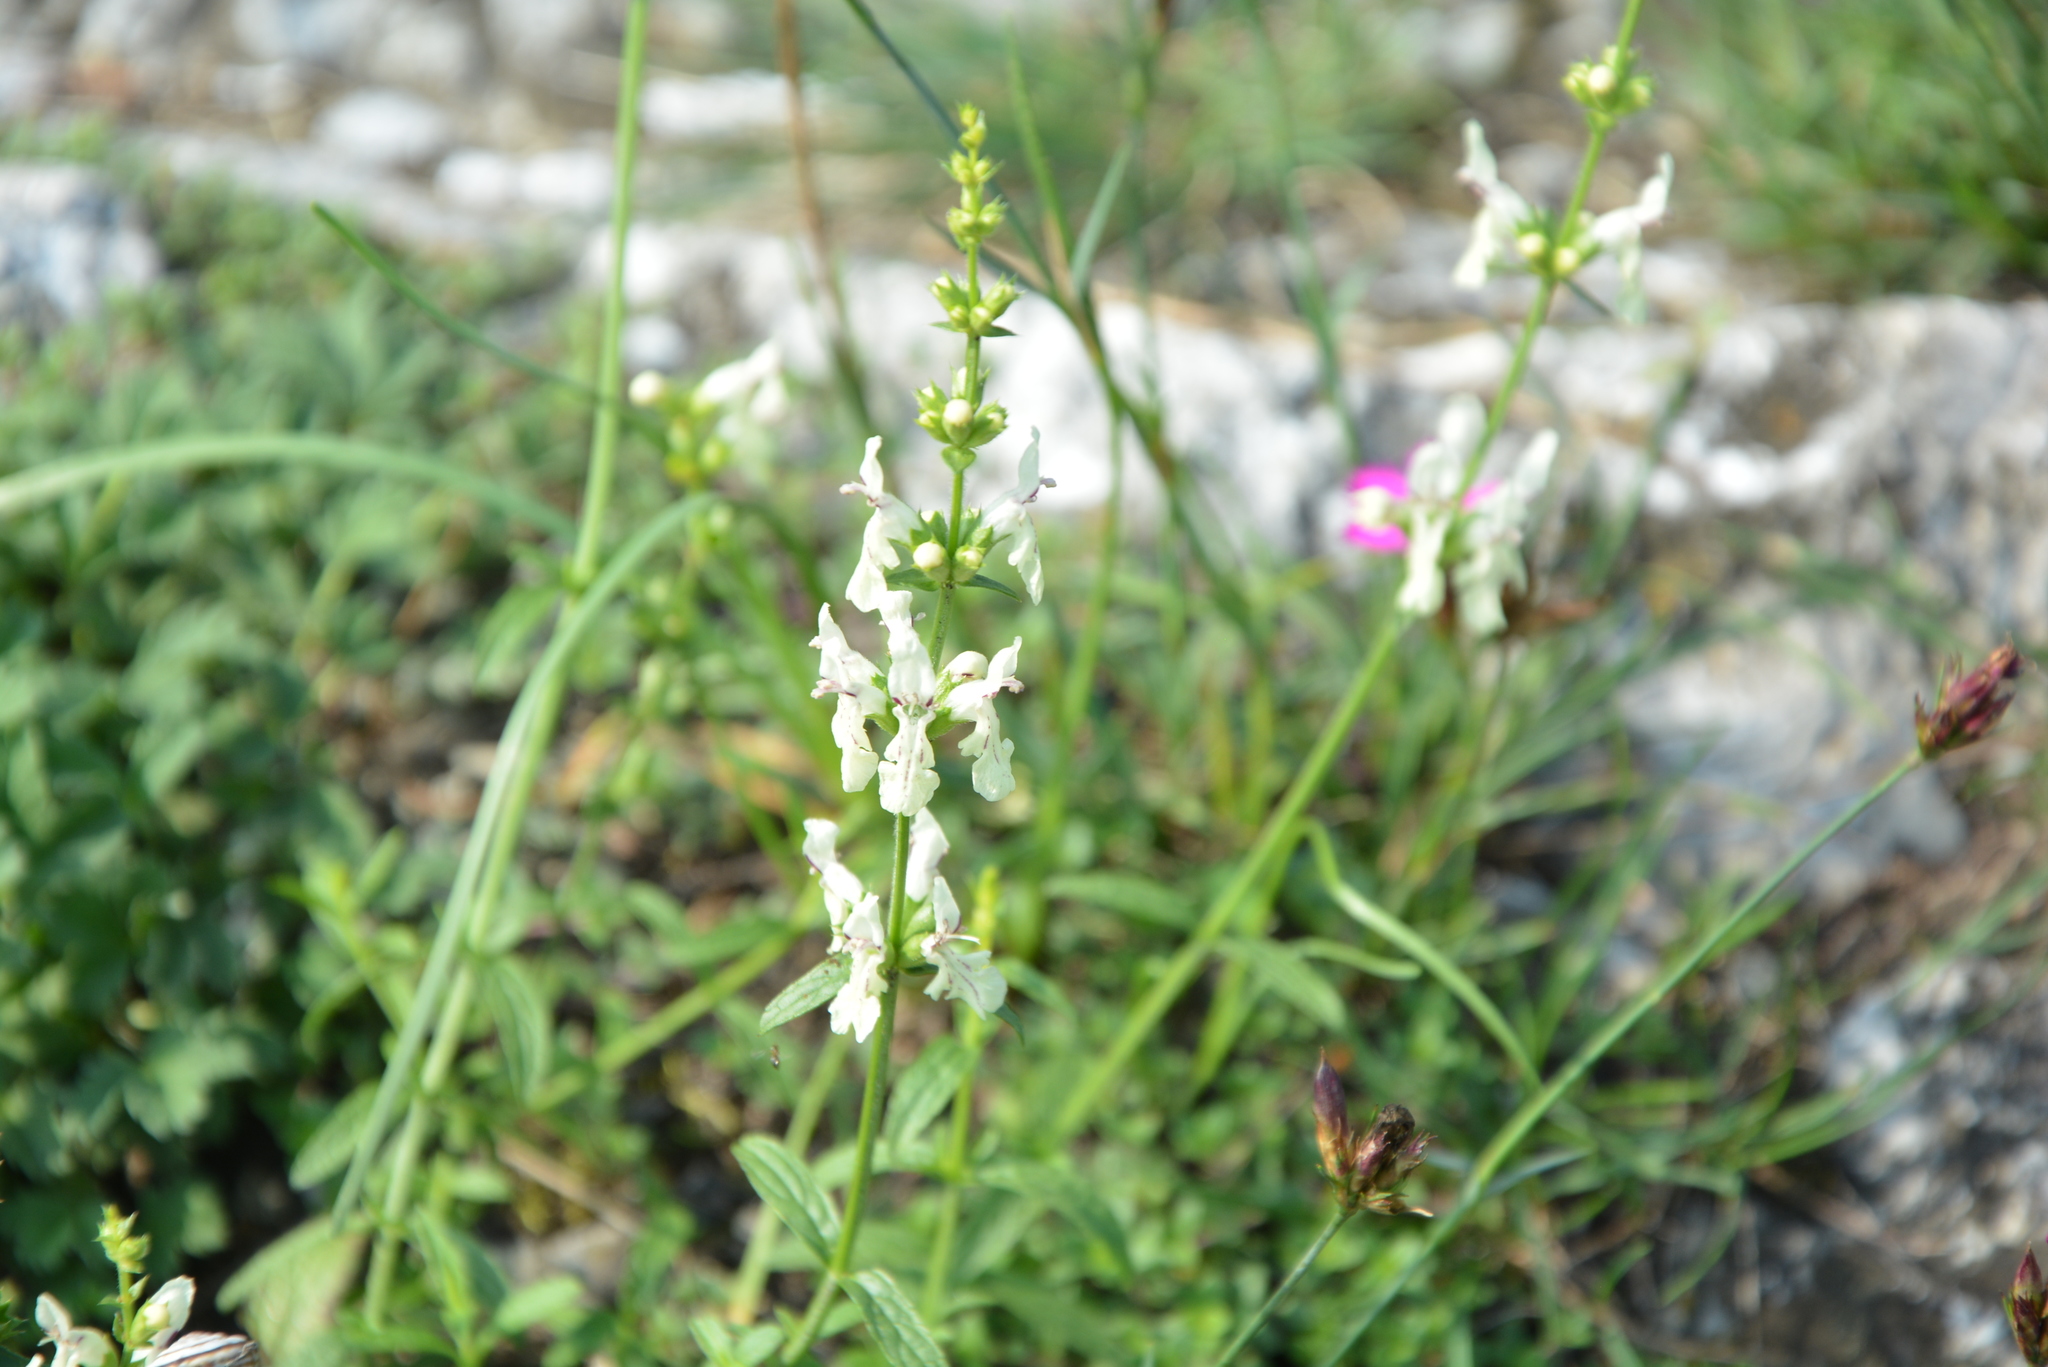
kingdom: Plantae
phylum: Tracheophyta
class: Magnoliopsida
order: Lamiales
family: Lamiaceae
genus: Stachys
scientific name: Stachys recta
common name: Perennial yellow-woundwort
